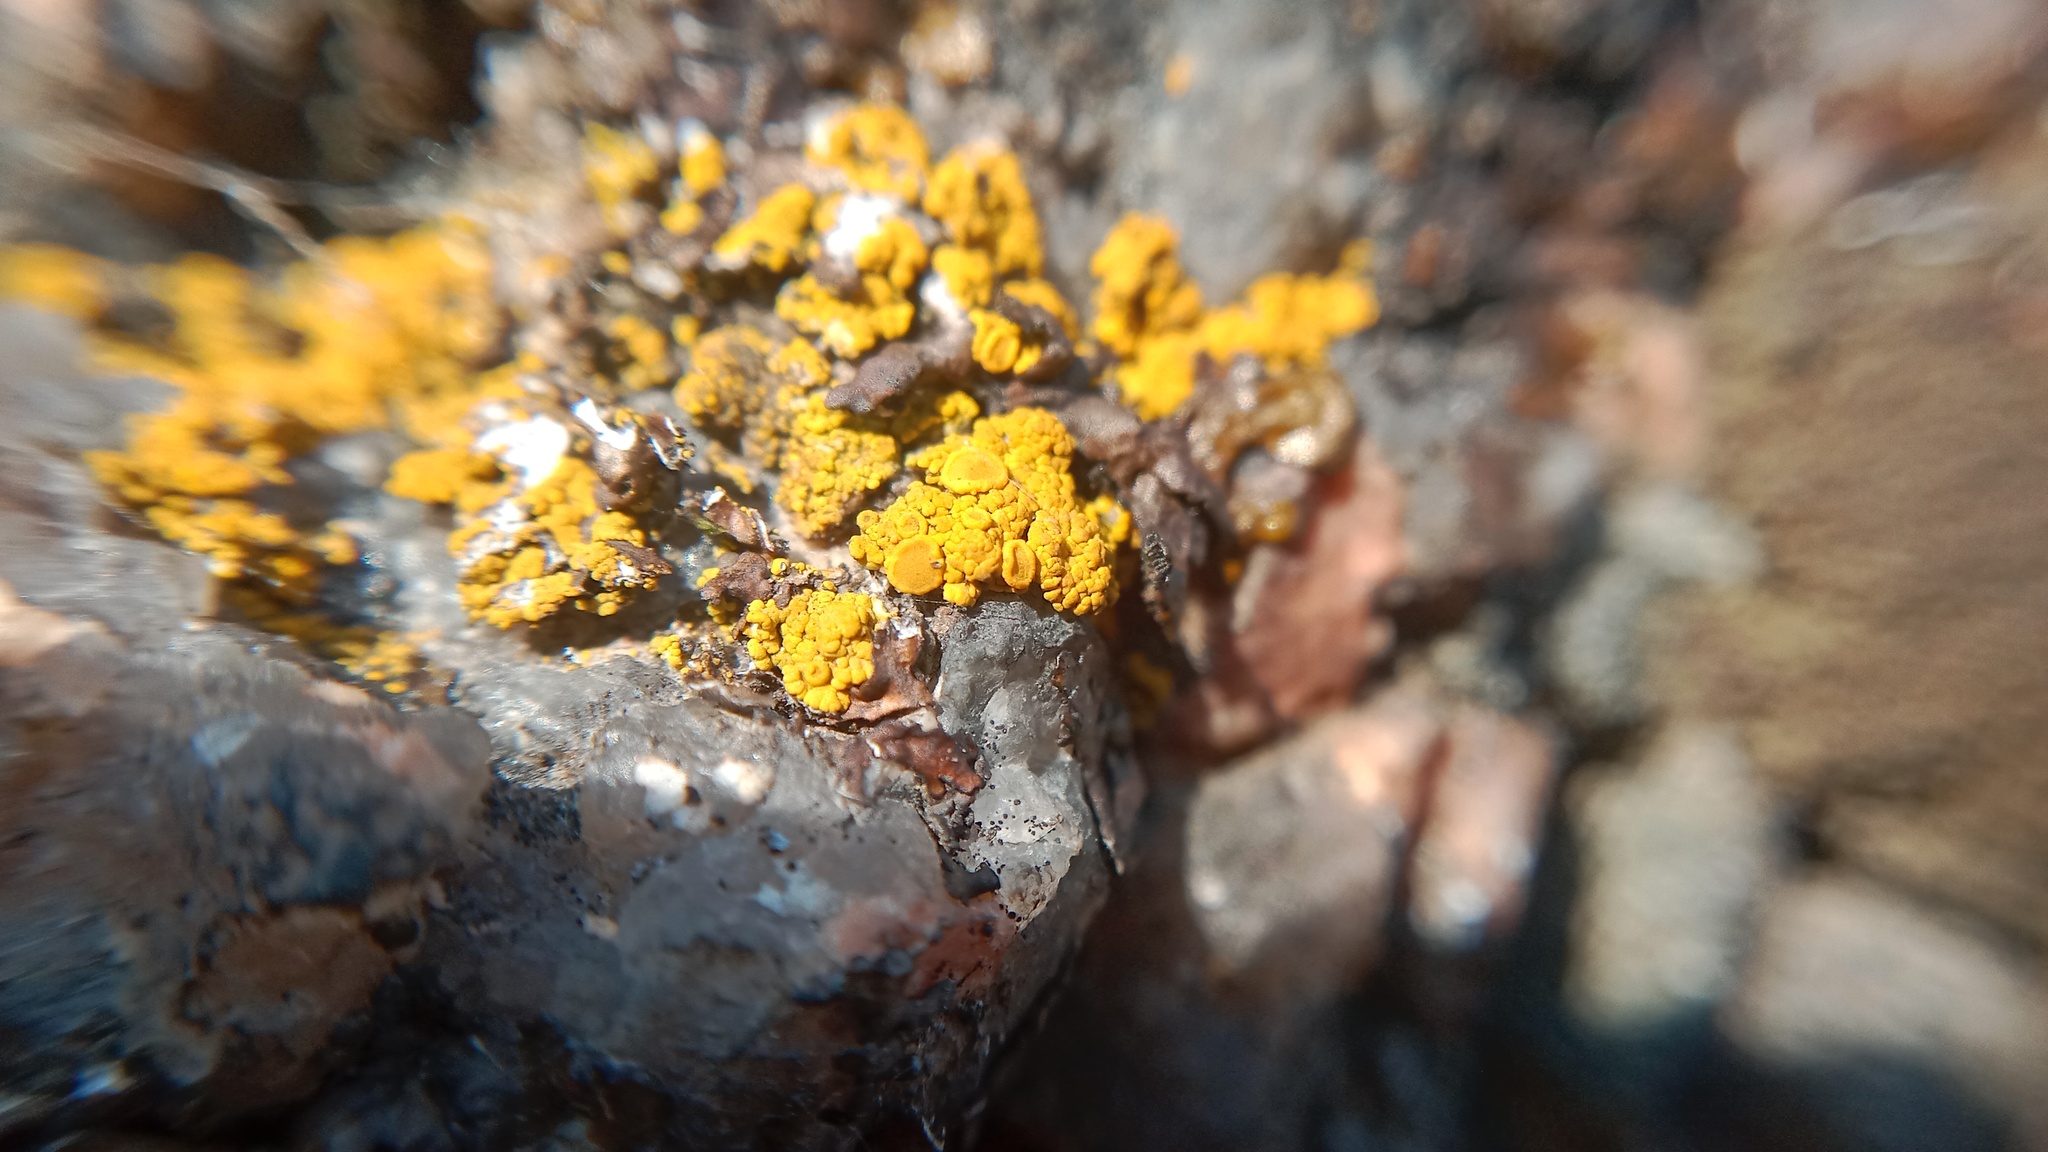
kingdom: Fungi
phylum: Ascomycota
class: Candelariomycetes
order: Candelariales
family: Candelariaceae
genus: Candelariella
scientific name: Candelariella vitellina
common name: Common goldspeck
